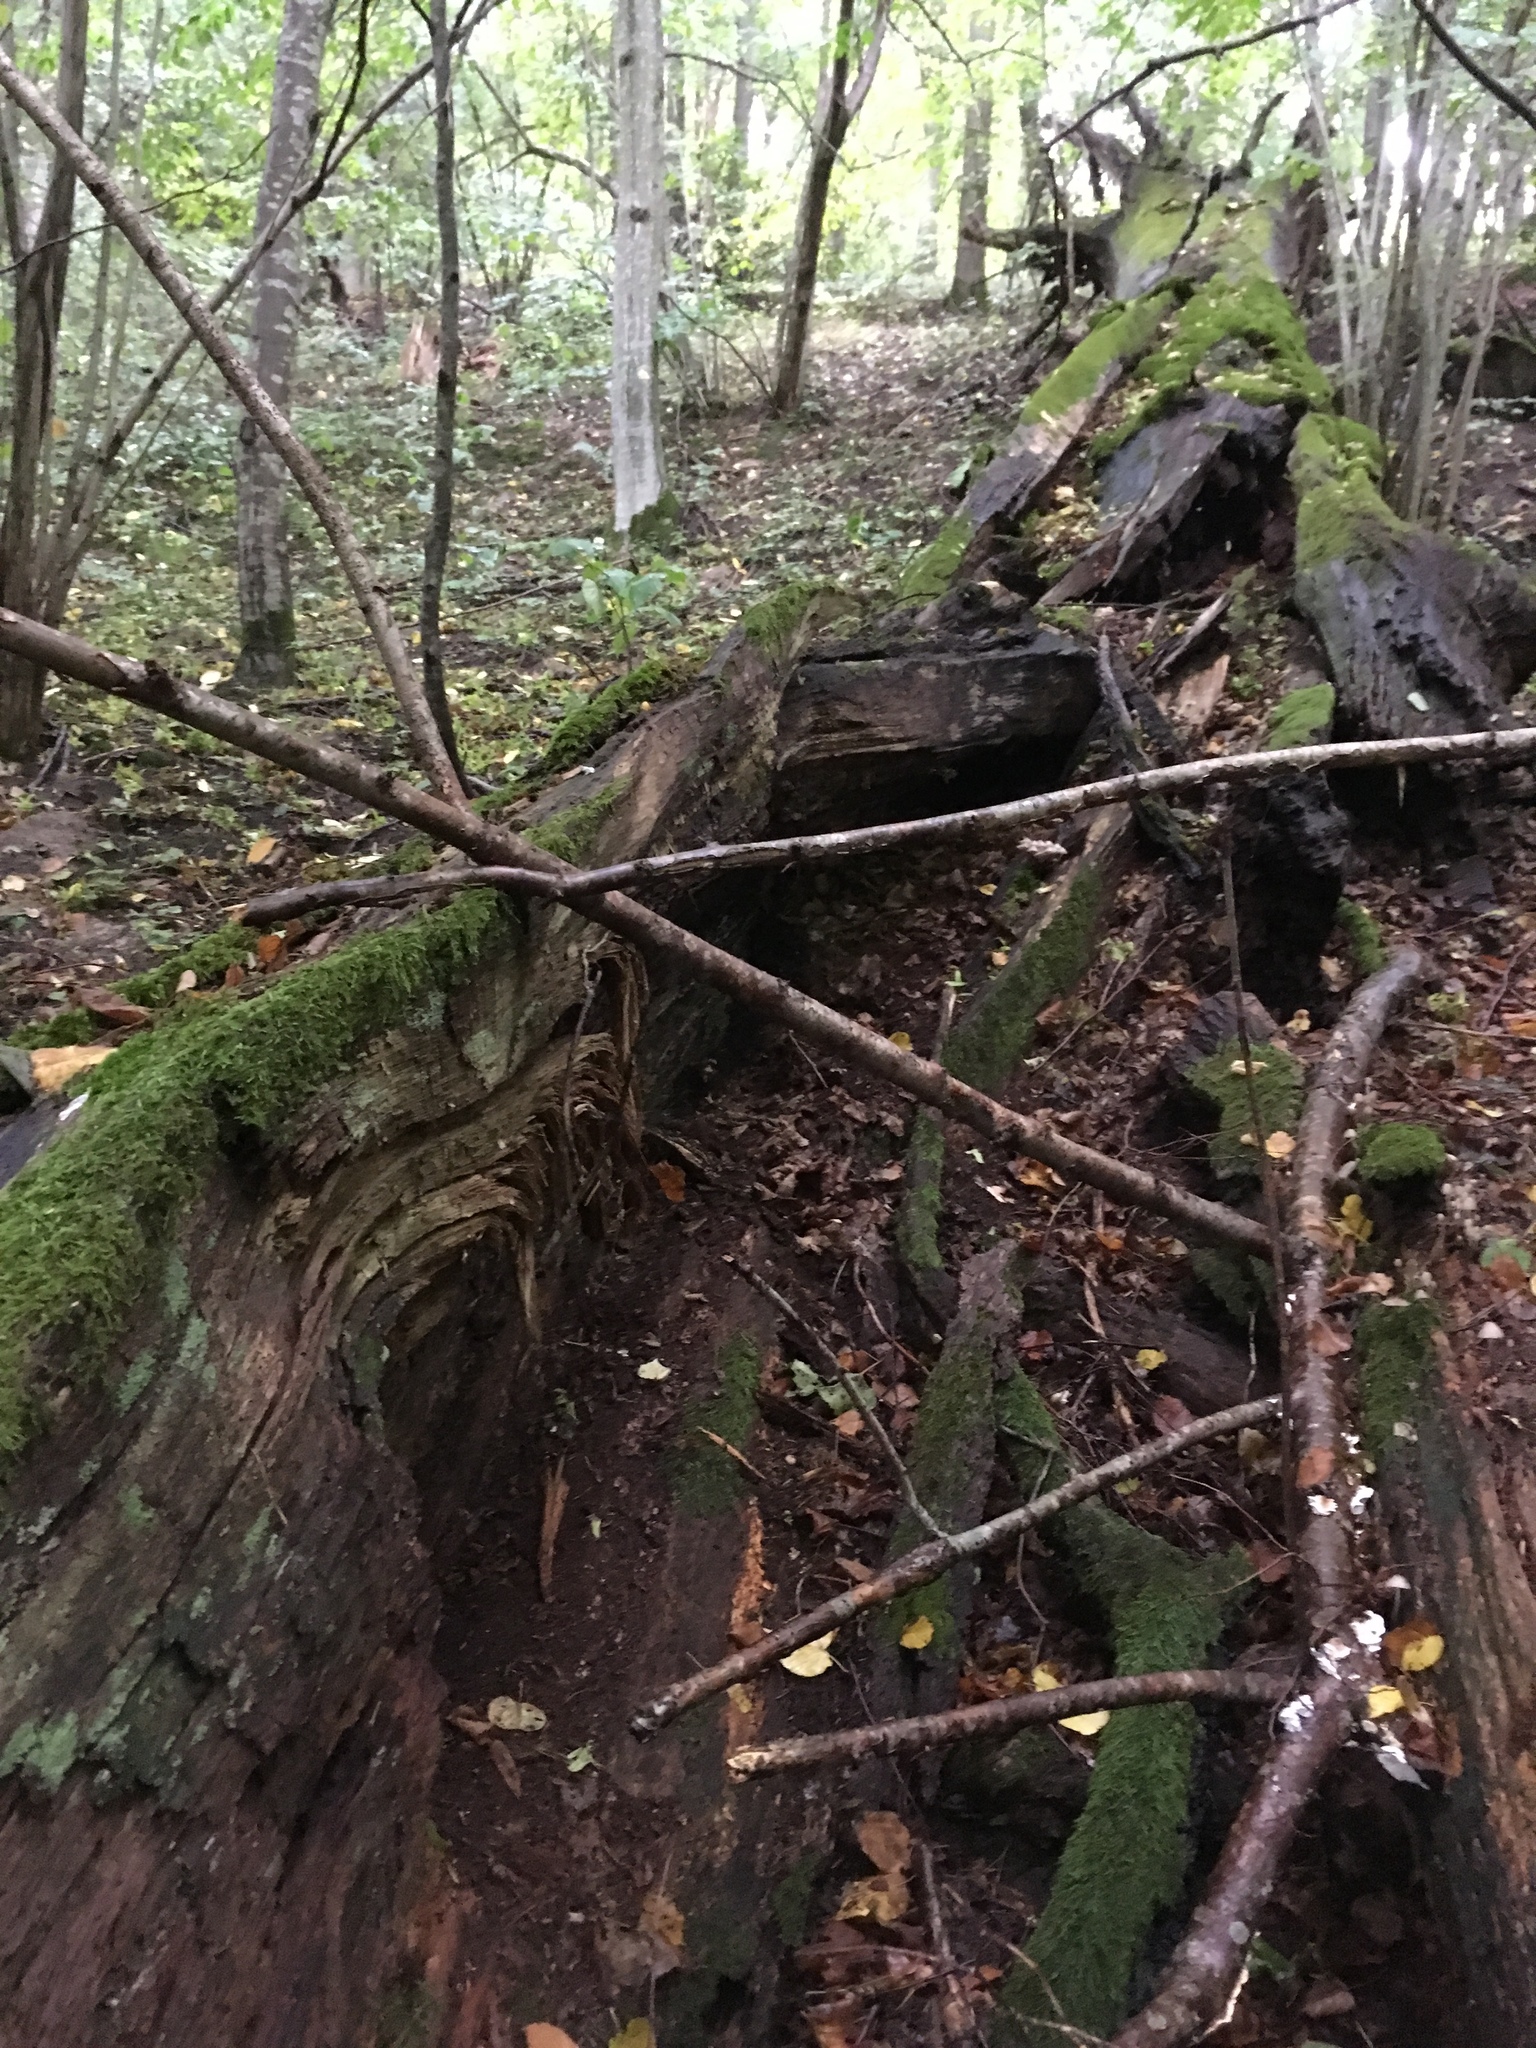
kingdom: Fungi
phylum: Basidiomycota
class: Agaricomycetes
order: Polyporales
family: Phanerochaetaceae
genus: Hapalopilus
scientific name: Hapalopilus croceus
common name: Orange polypore
